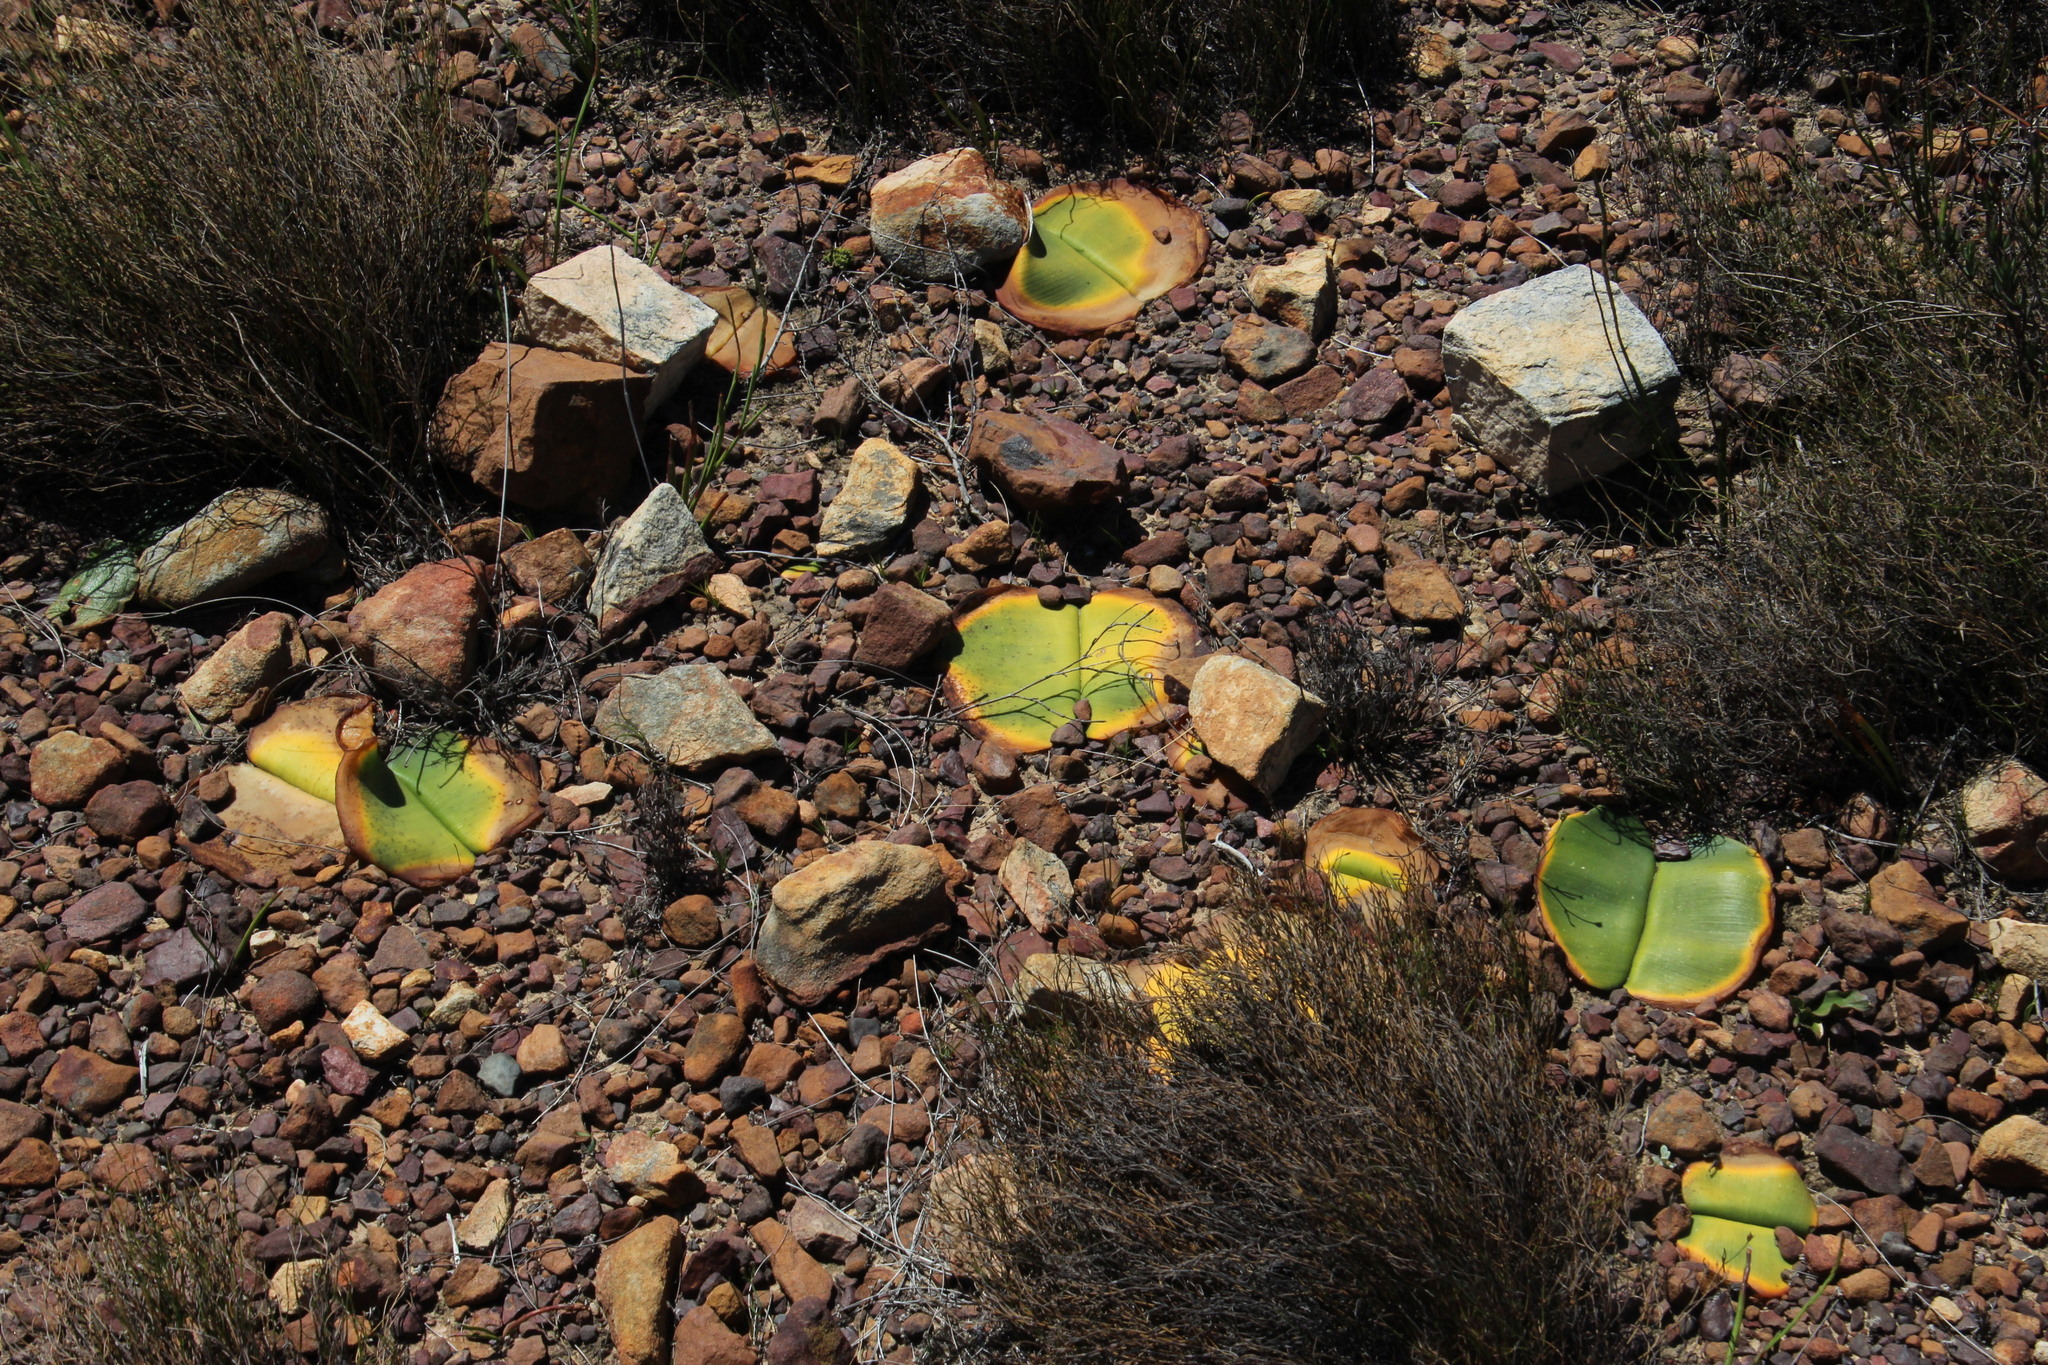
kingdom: Plantae
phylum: Tracheophyta
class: Liliopsida
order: Asparagales
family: Amaryllidaceae
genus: Haemanthus
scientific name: Haemanthus sanguineus
